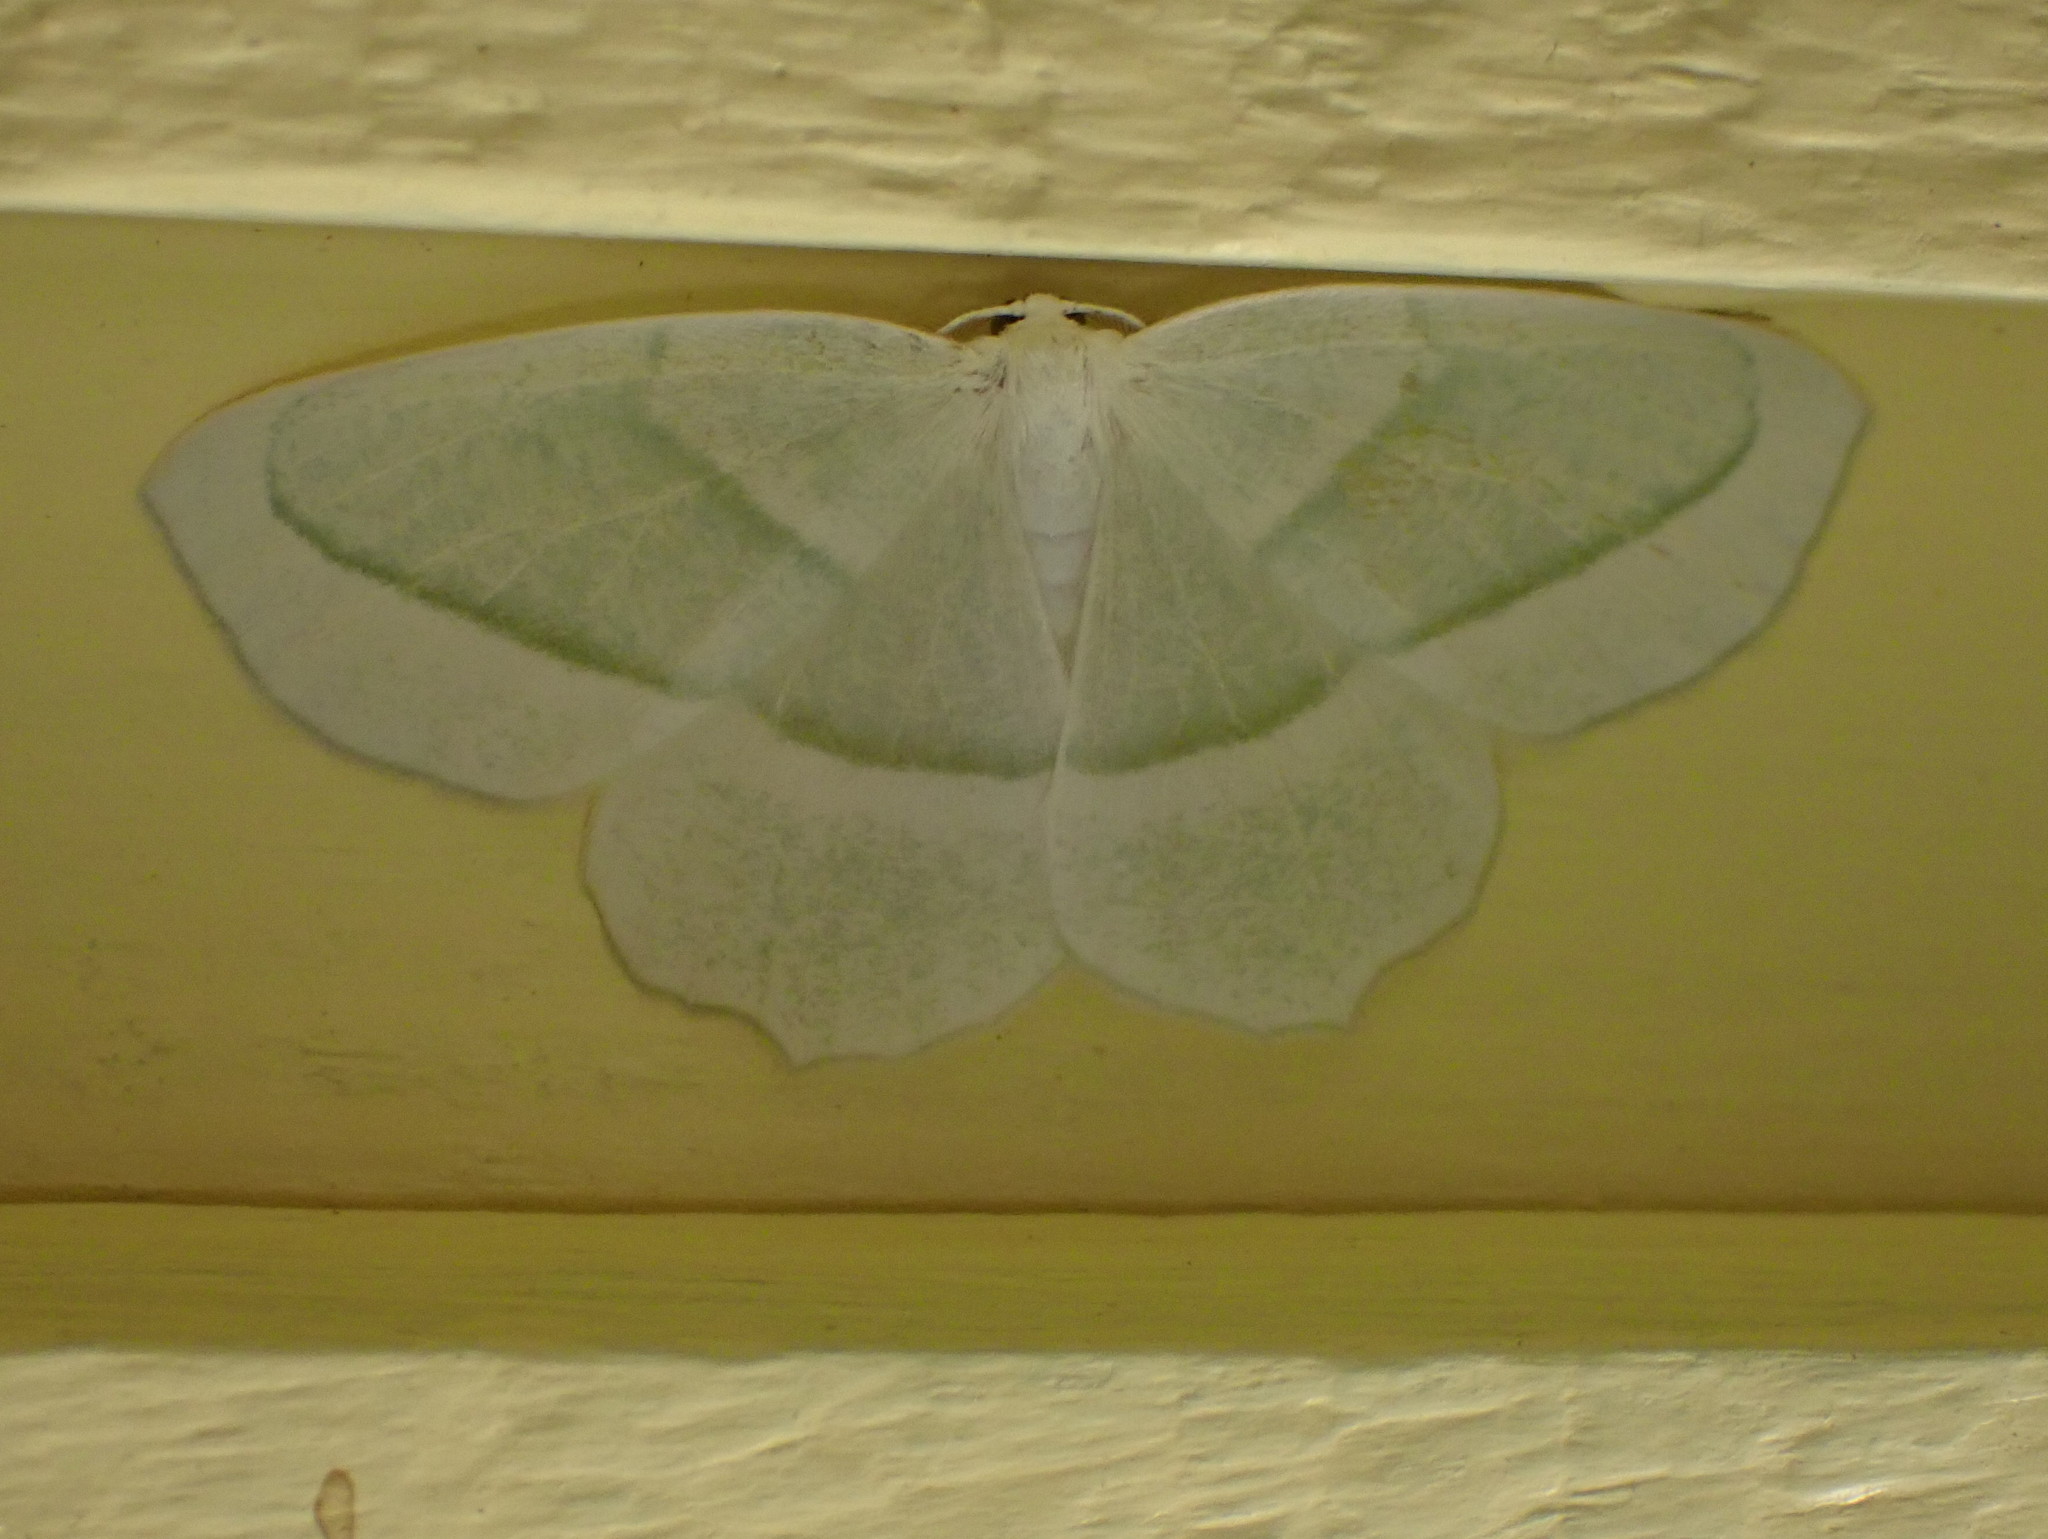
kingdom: Animalia
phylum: Arthropoda
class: Insecta
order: Lepidoptera
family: Geometridae
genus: Campaea
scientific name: Campaea perlata
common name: Fringed looper
